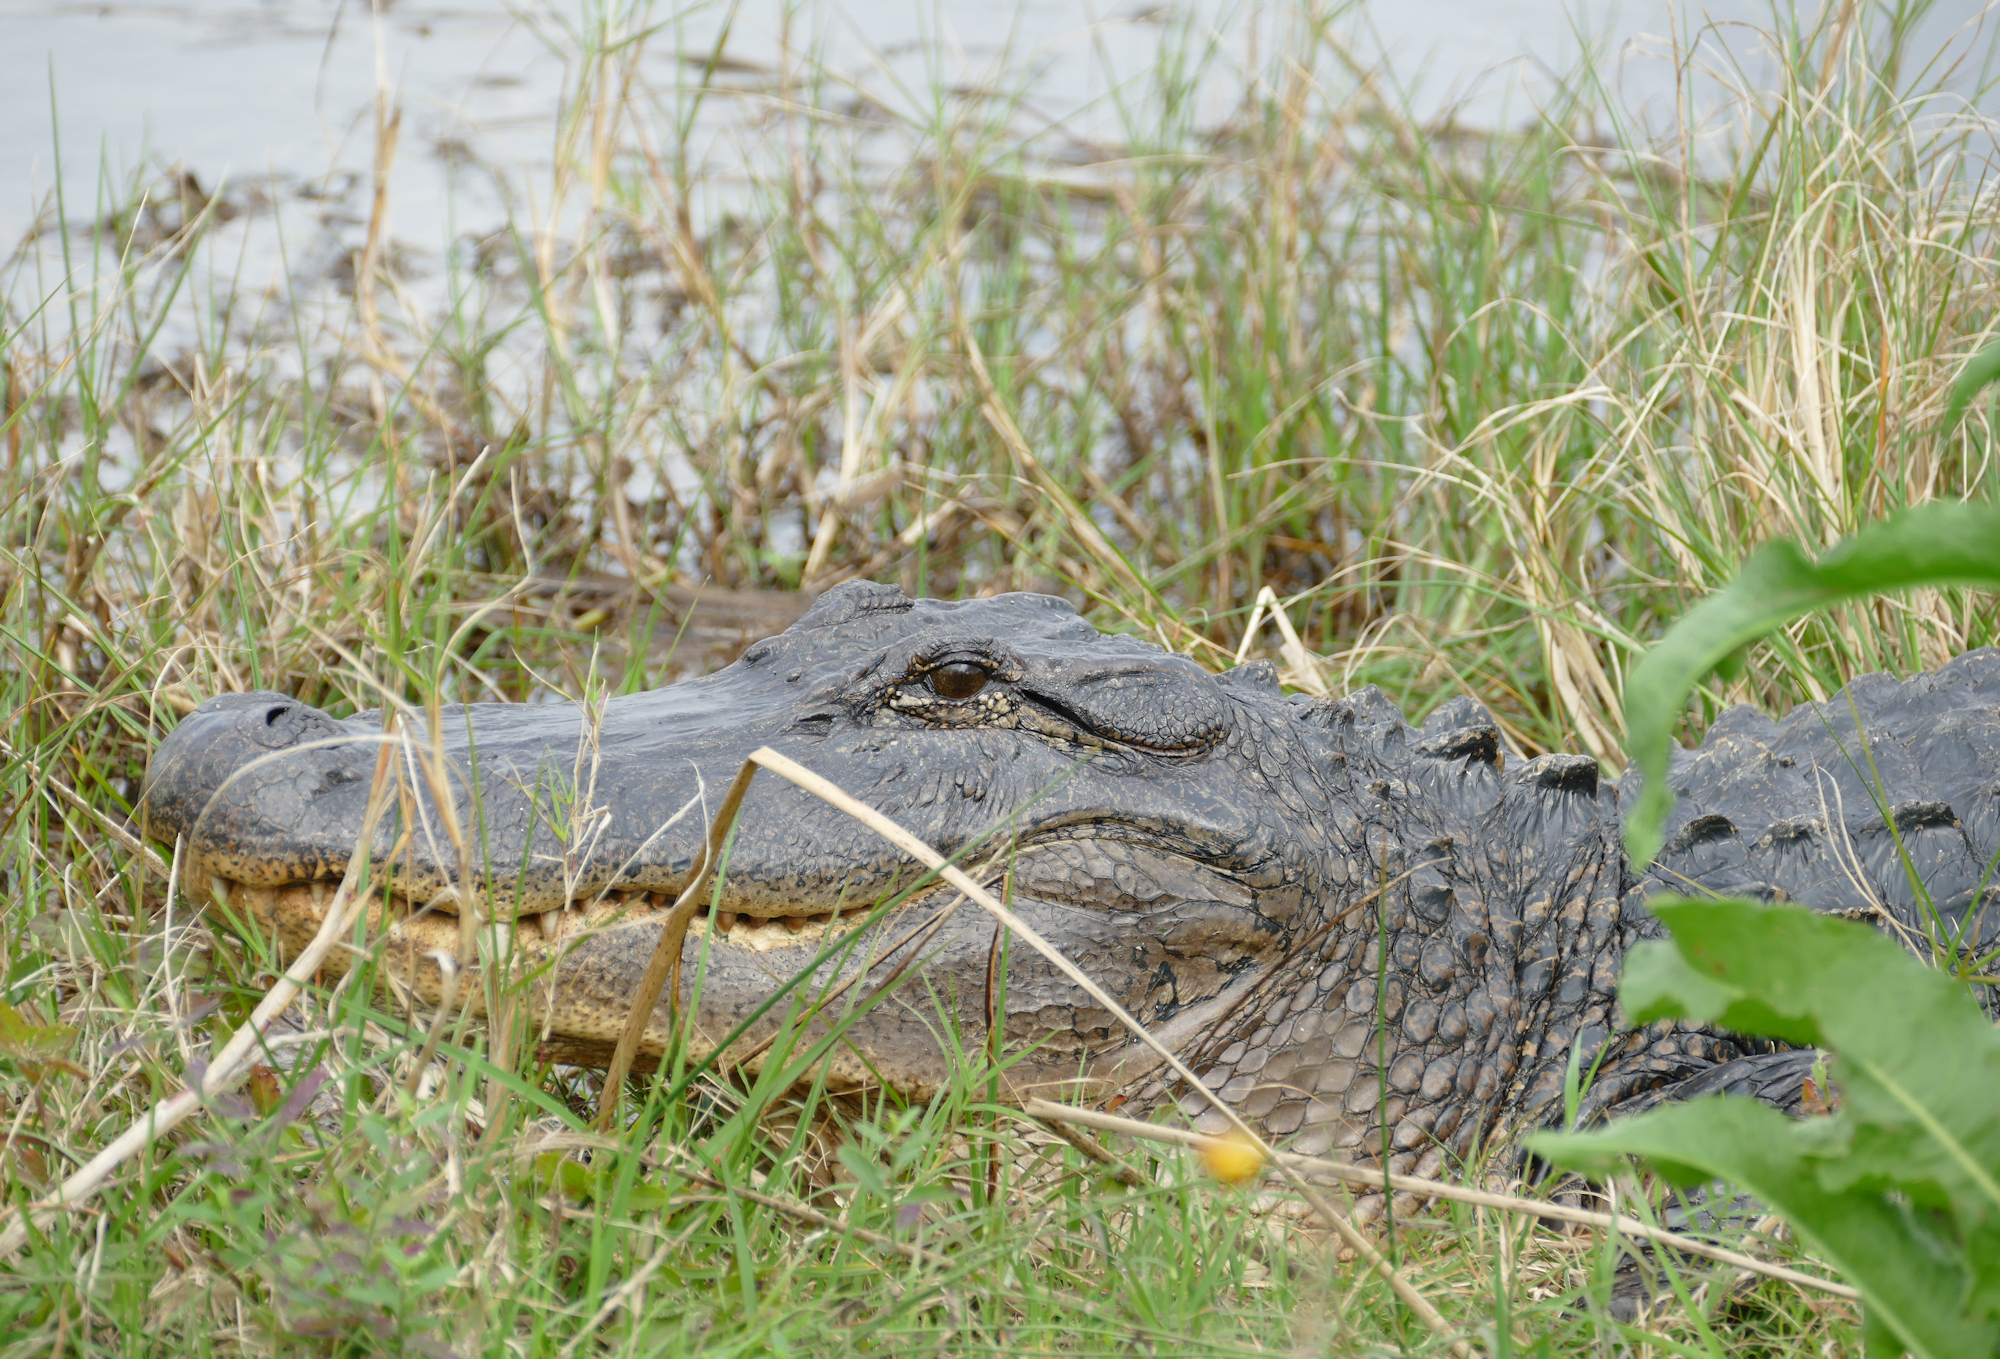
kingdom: Animalia
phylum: Chordata
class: Crocodylia
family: Alligatoridae
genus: Alligator
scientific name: Alligator mississippiensis
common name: American alligator
